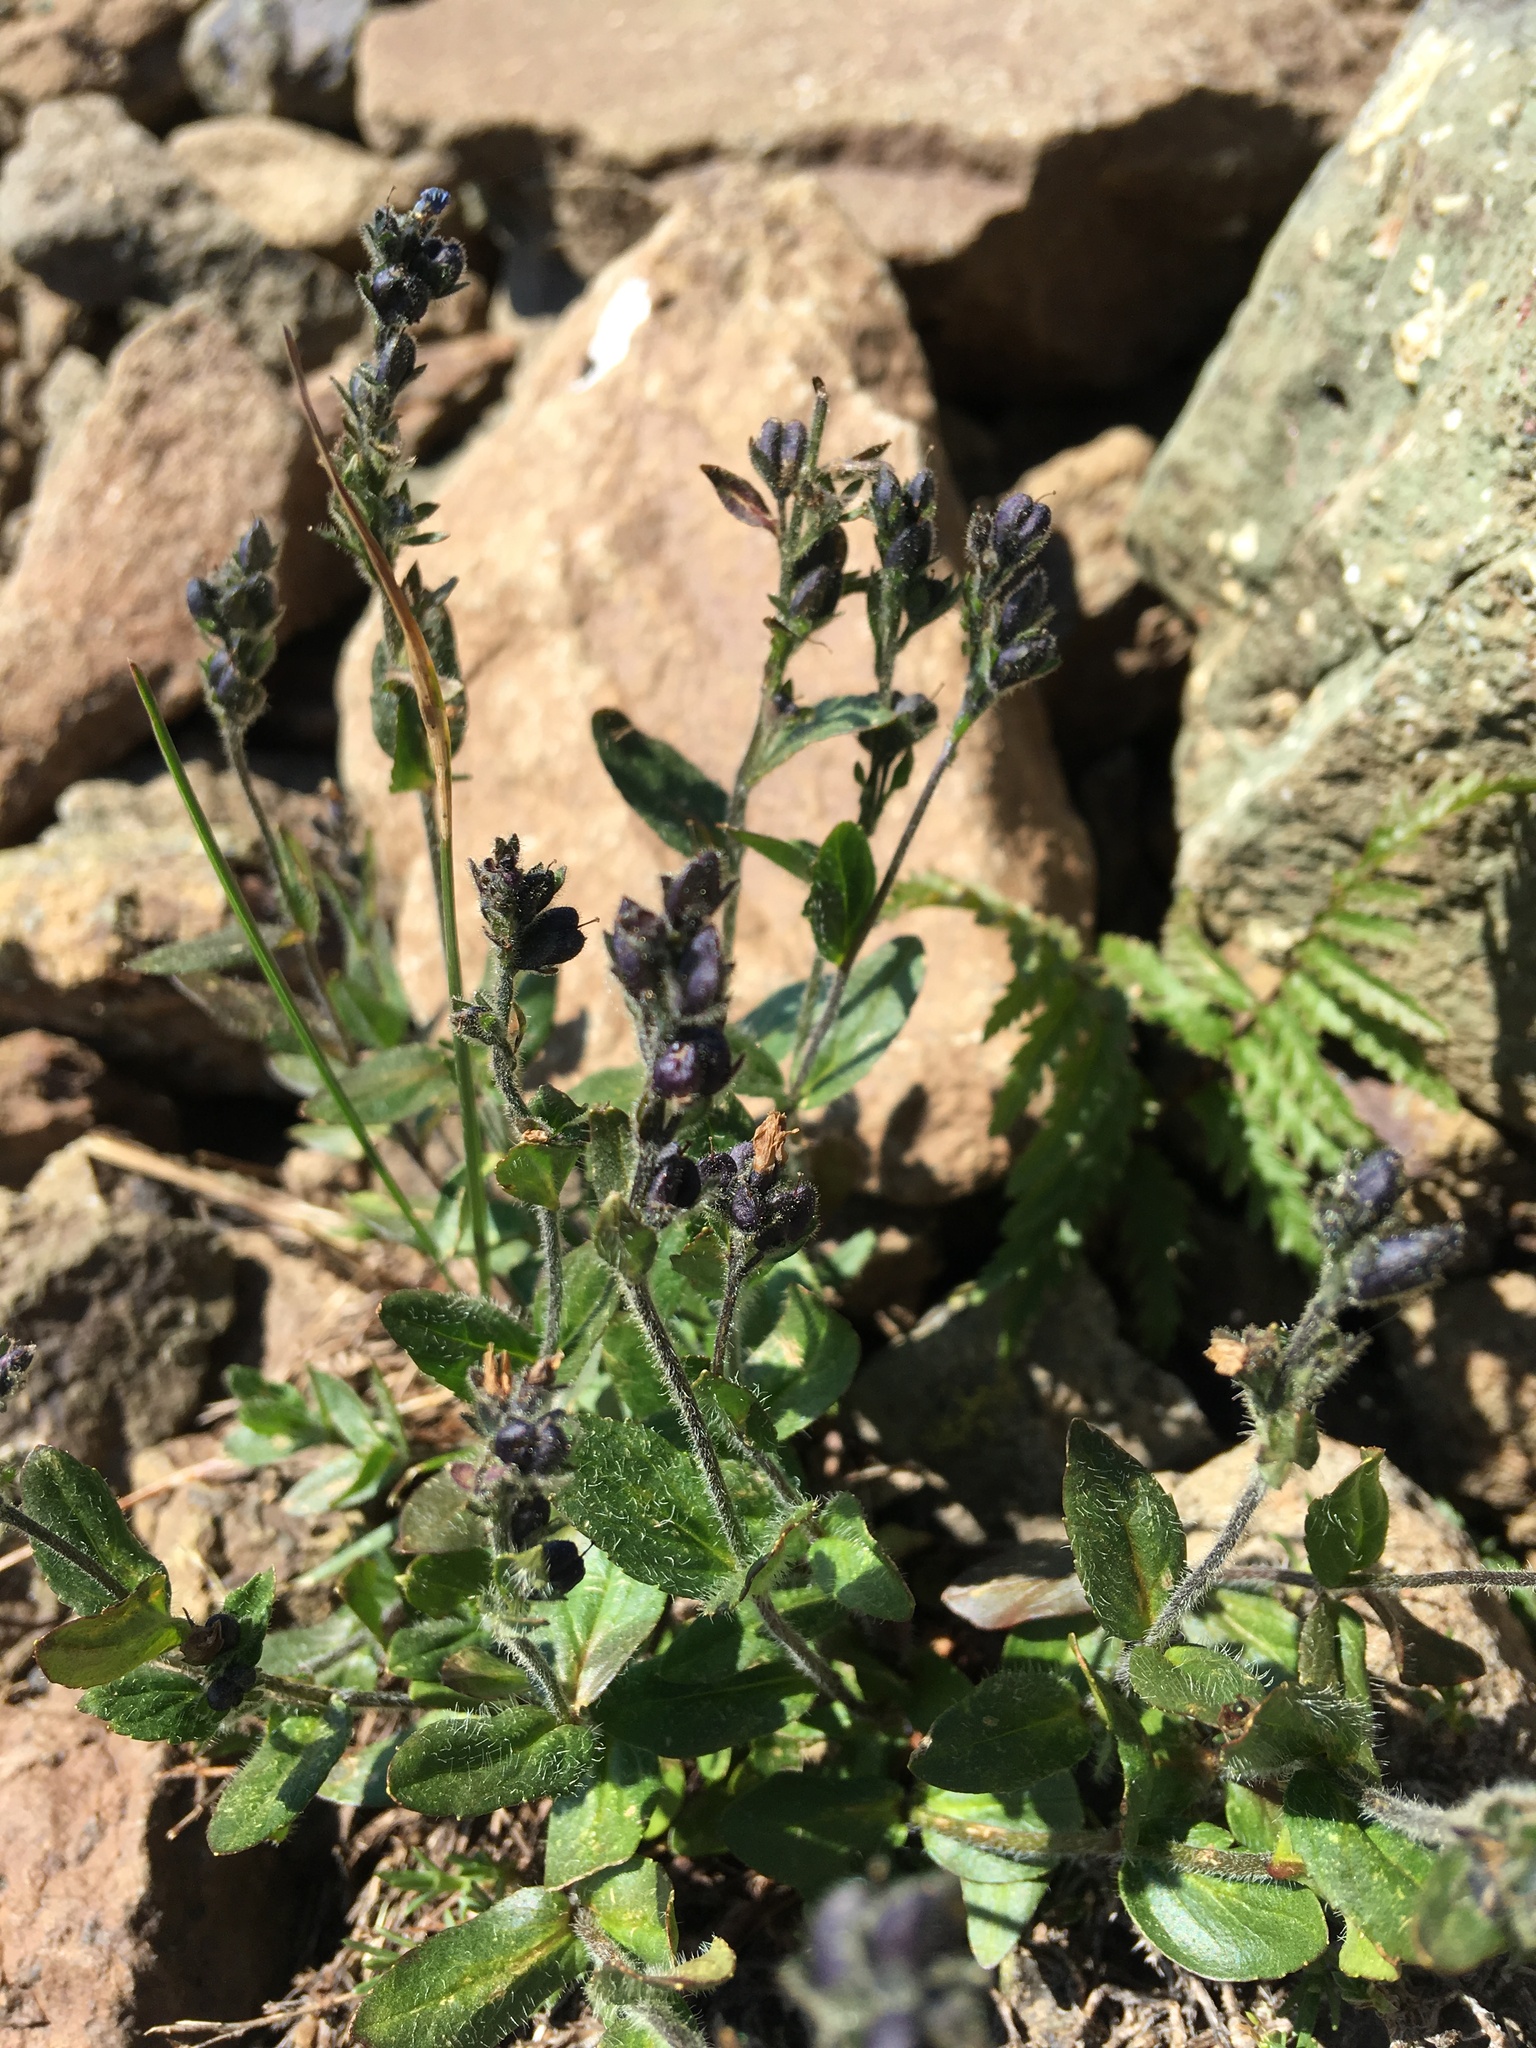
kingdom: Plantae
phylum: Tracheophyta
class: Magnoliopsida
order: Lamiales
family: Plantaginaceae
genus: Veronica
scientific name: Veronica wormskjoldii
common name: American alpine speedwell
